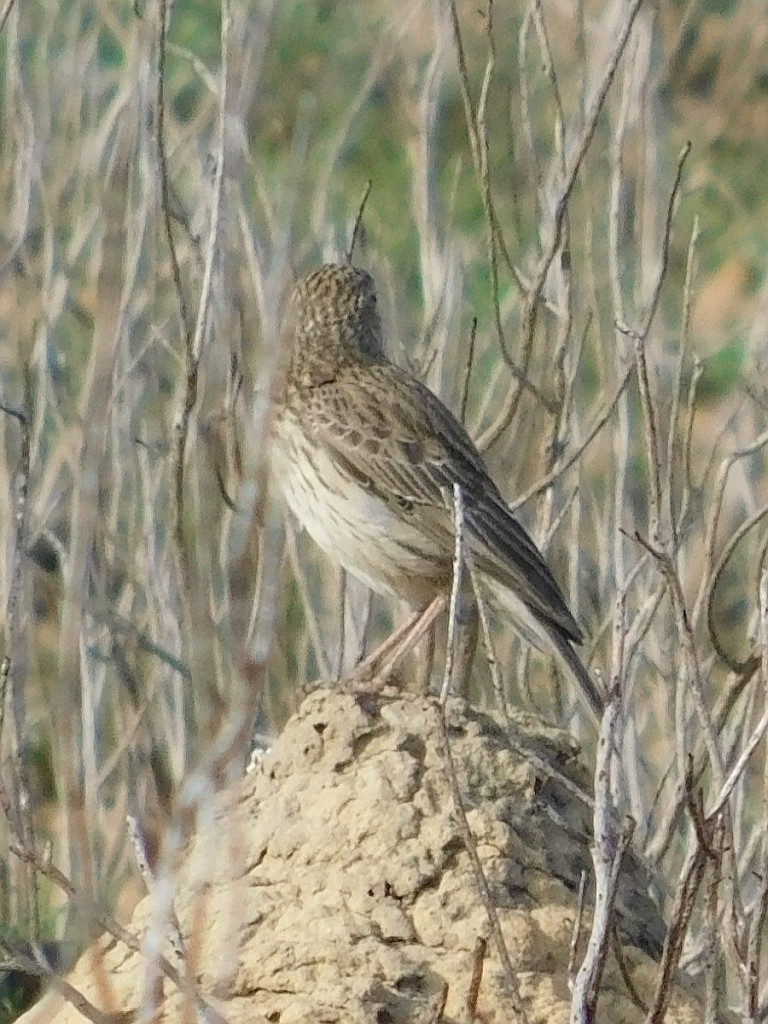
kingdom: Animalia
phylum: Chordata
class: Aves
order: Passeriformes
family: Alaudidae
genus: Certhilauda
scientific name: Certhilauda curvirostris
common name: Cape long-billed lark
